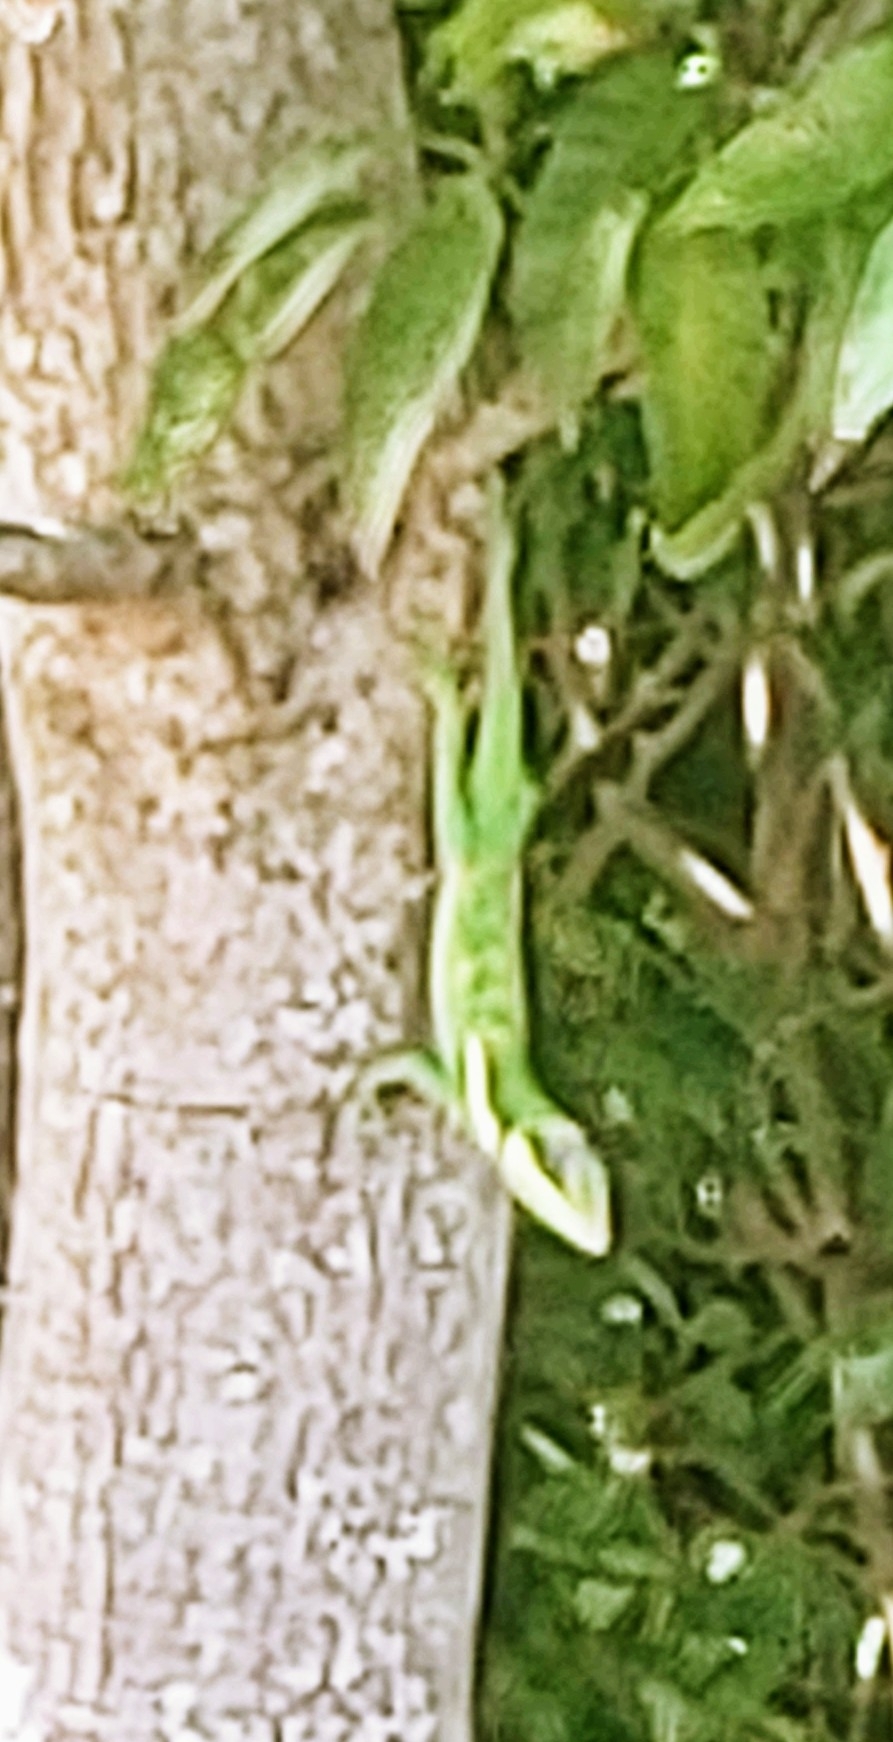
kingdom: Animalia
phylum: Chordata
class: Squamata
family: Dactyloidae
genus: Anolis
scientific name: Anolis equestris
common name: Knight anole
